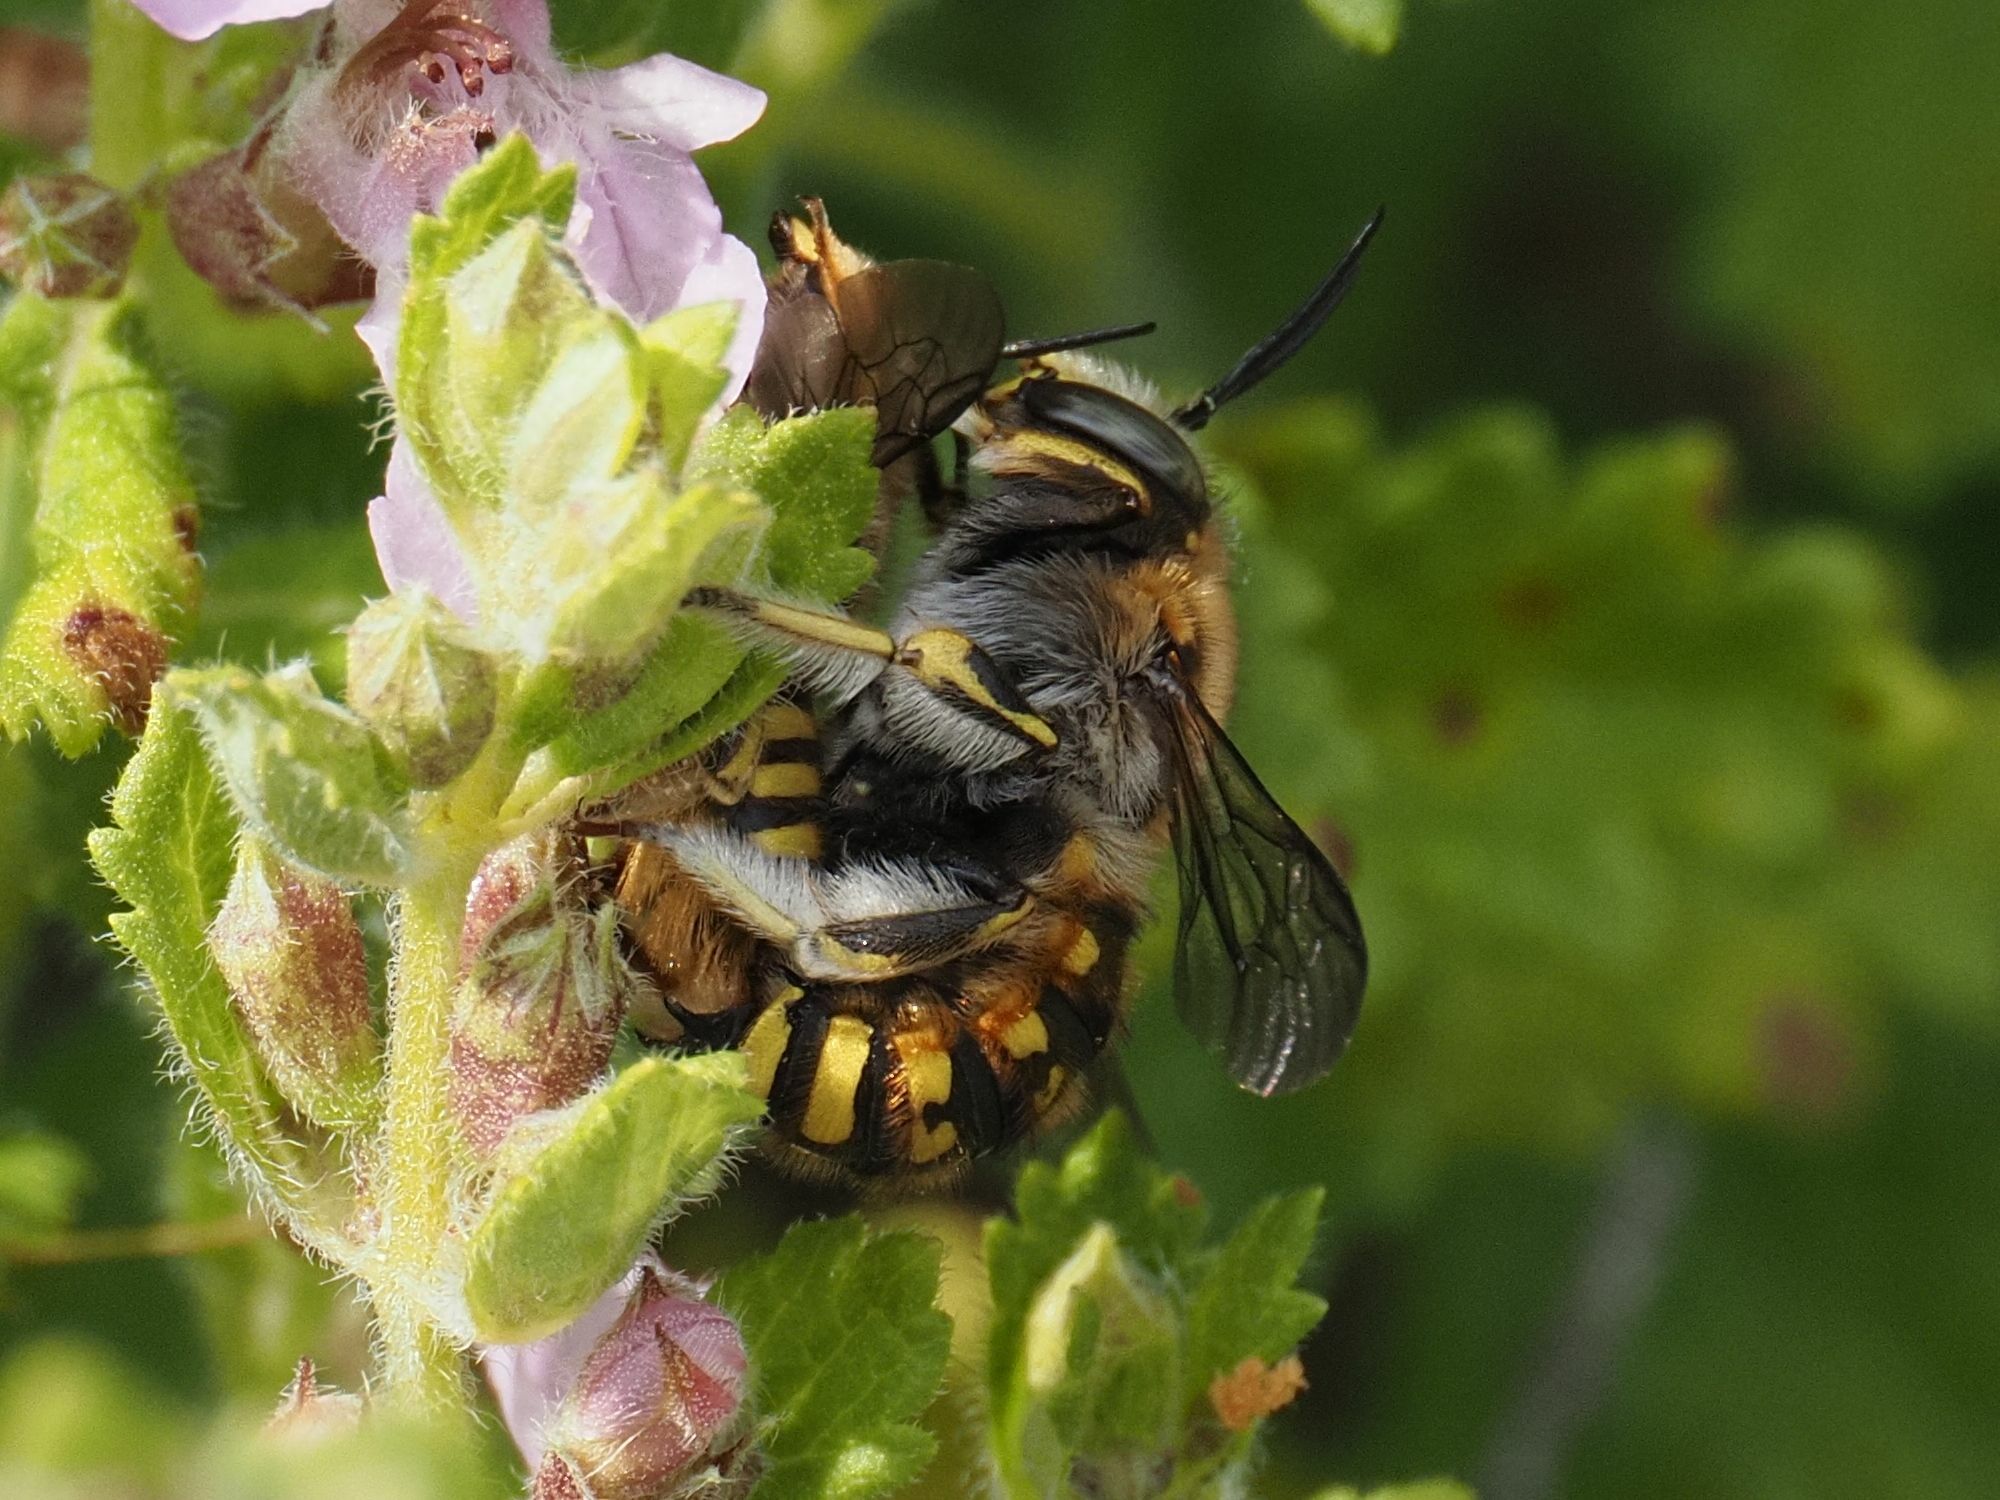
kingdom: Animalia
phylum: Arthropoda
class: Insecta
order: Hymenoptera
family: Megachilidae
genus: Anthidium
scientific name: Anthidium manicatum
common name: Wool carder bee
